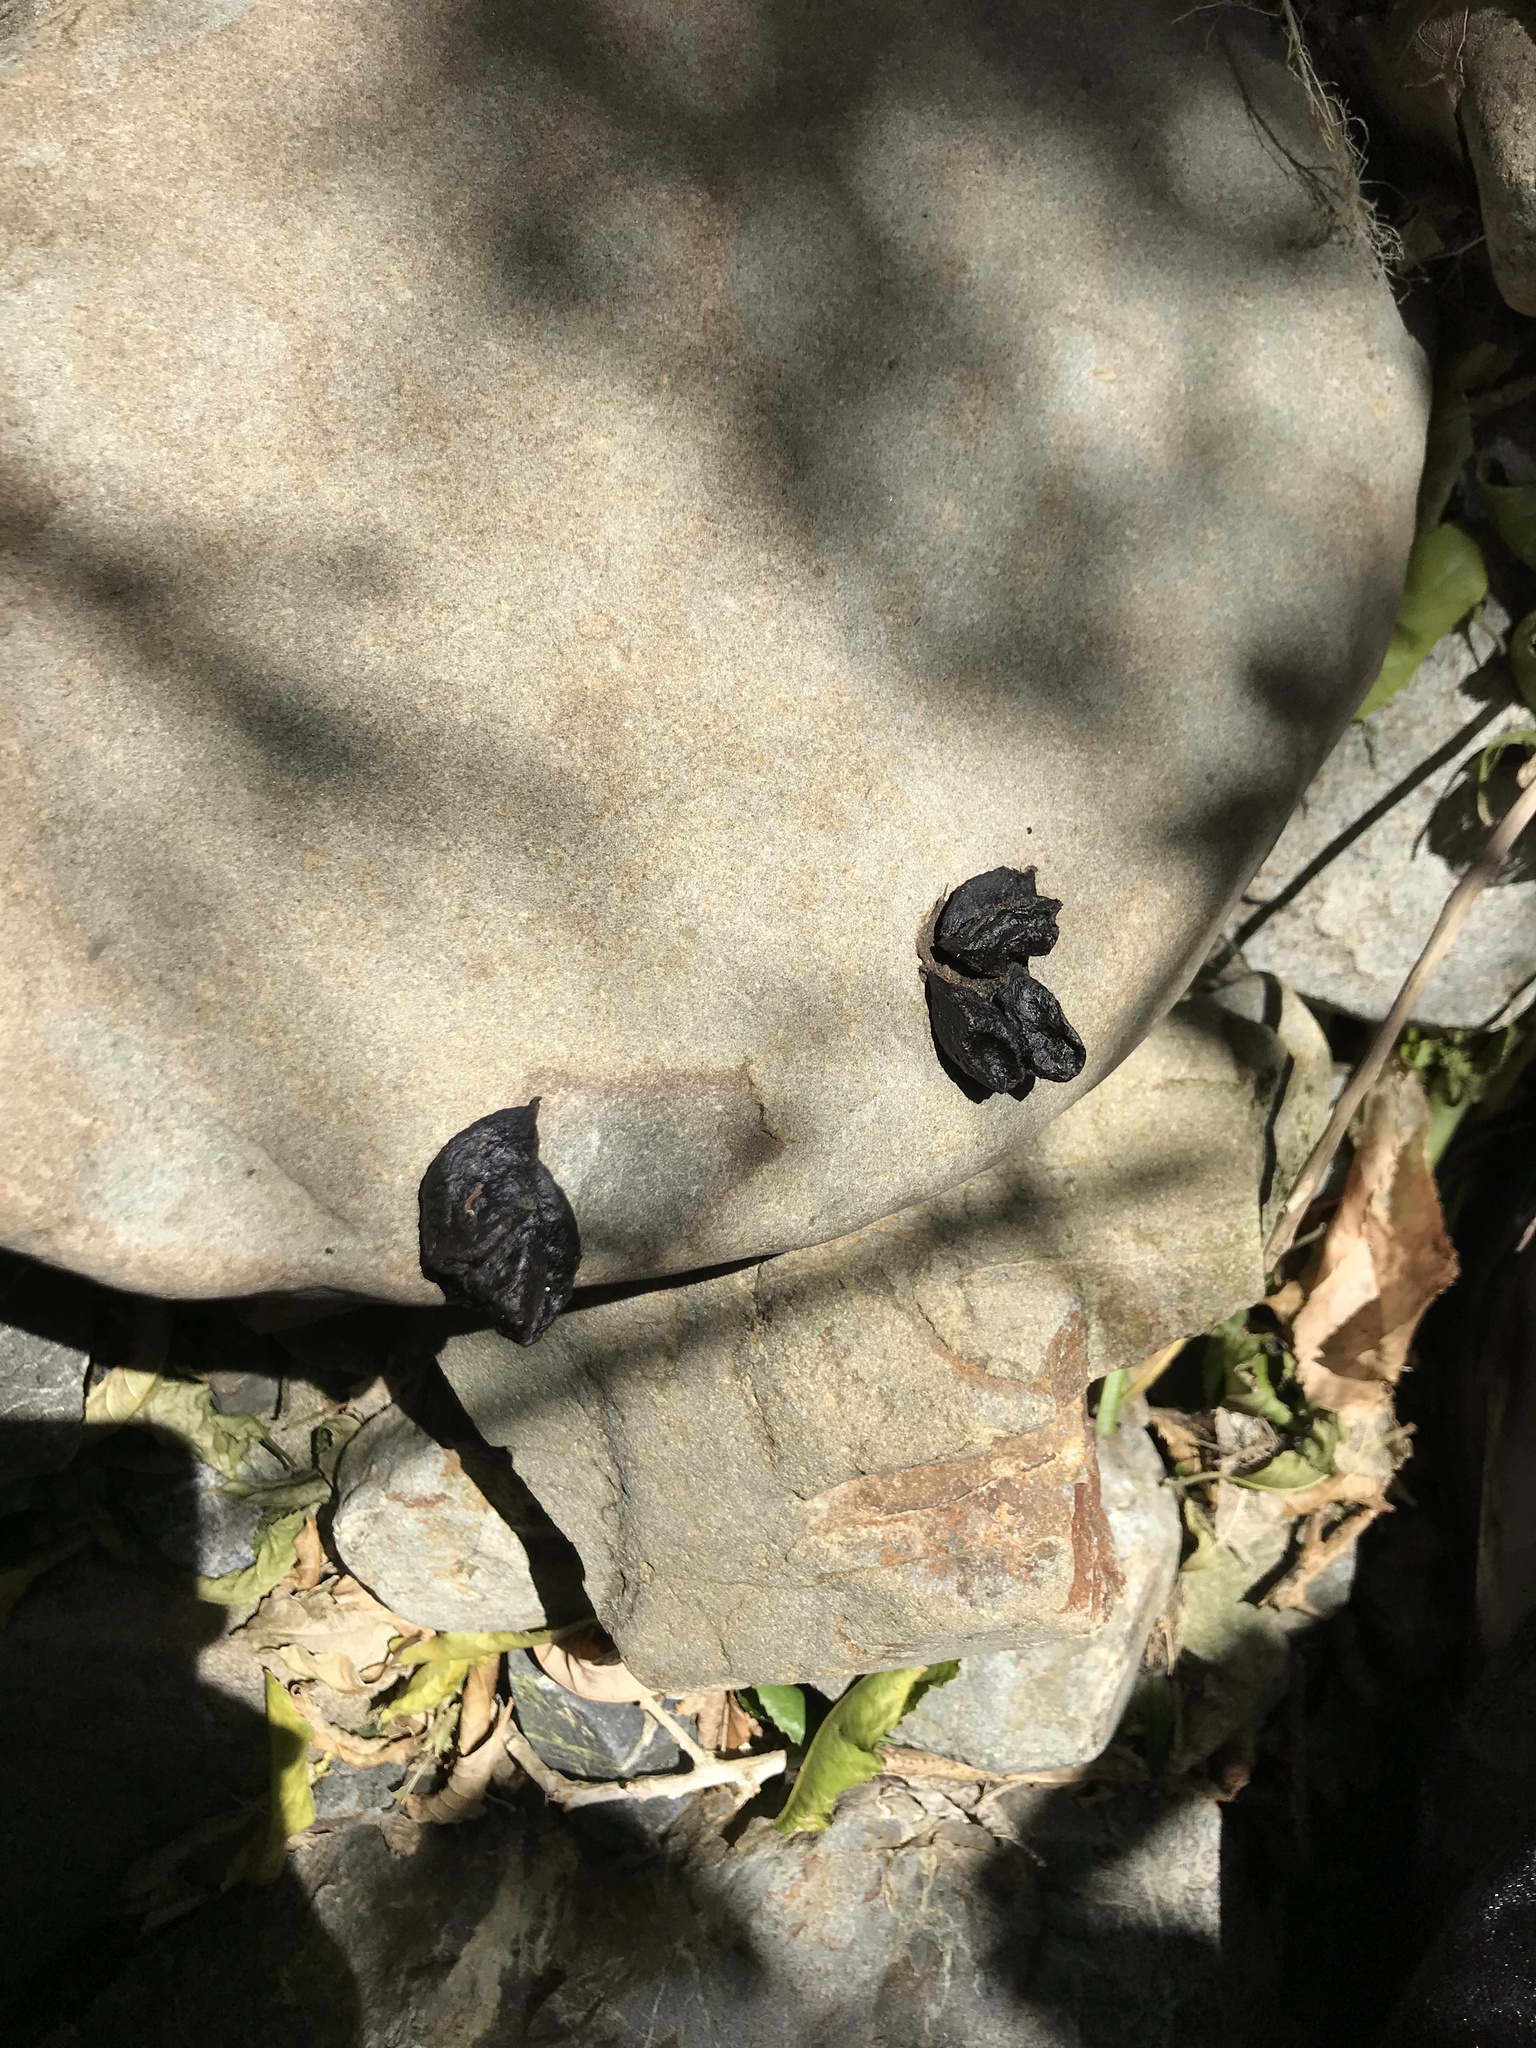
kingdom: Animalia
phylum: Chordata
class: Mammalia
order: Diprotodontia
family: Phalangeridae
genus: Trichosurus
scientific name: Trichosurus vulpecula
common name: Common brushtail
